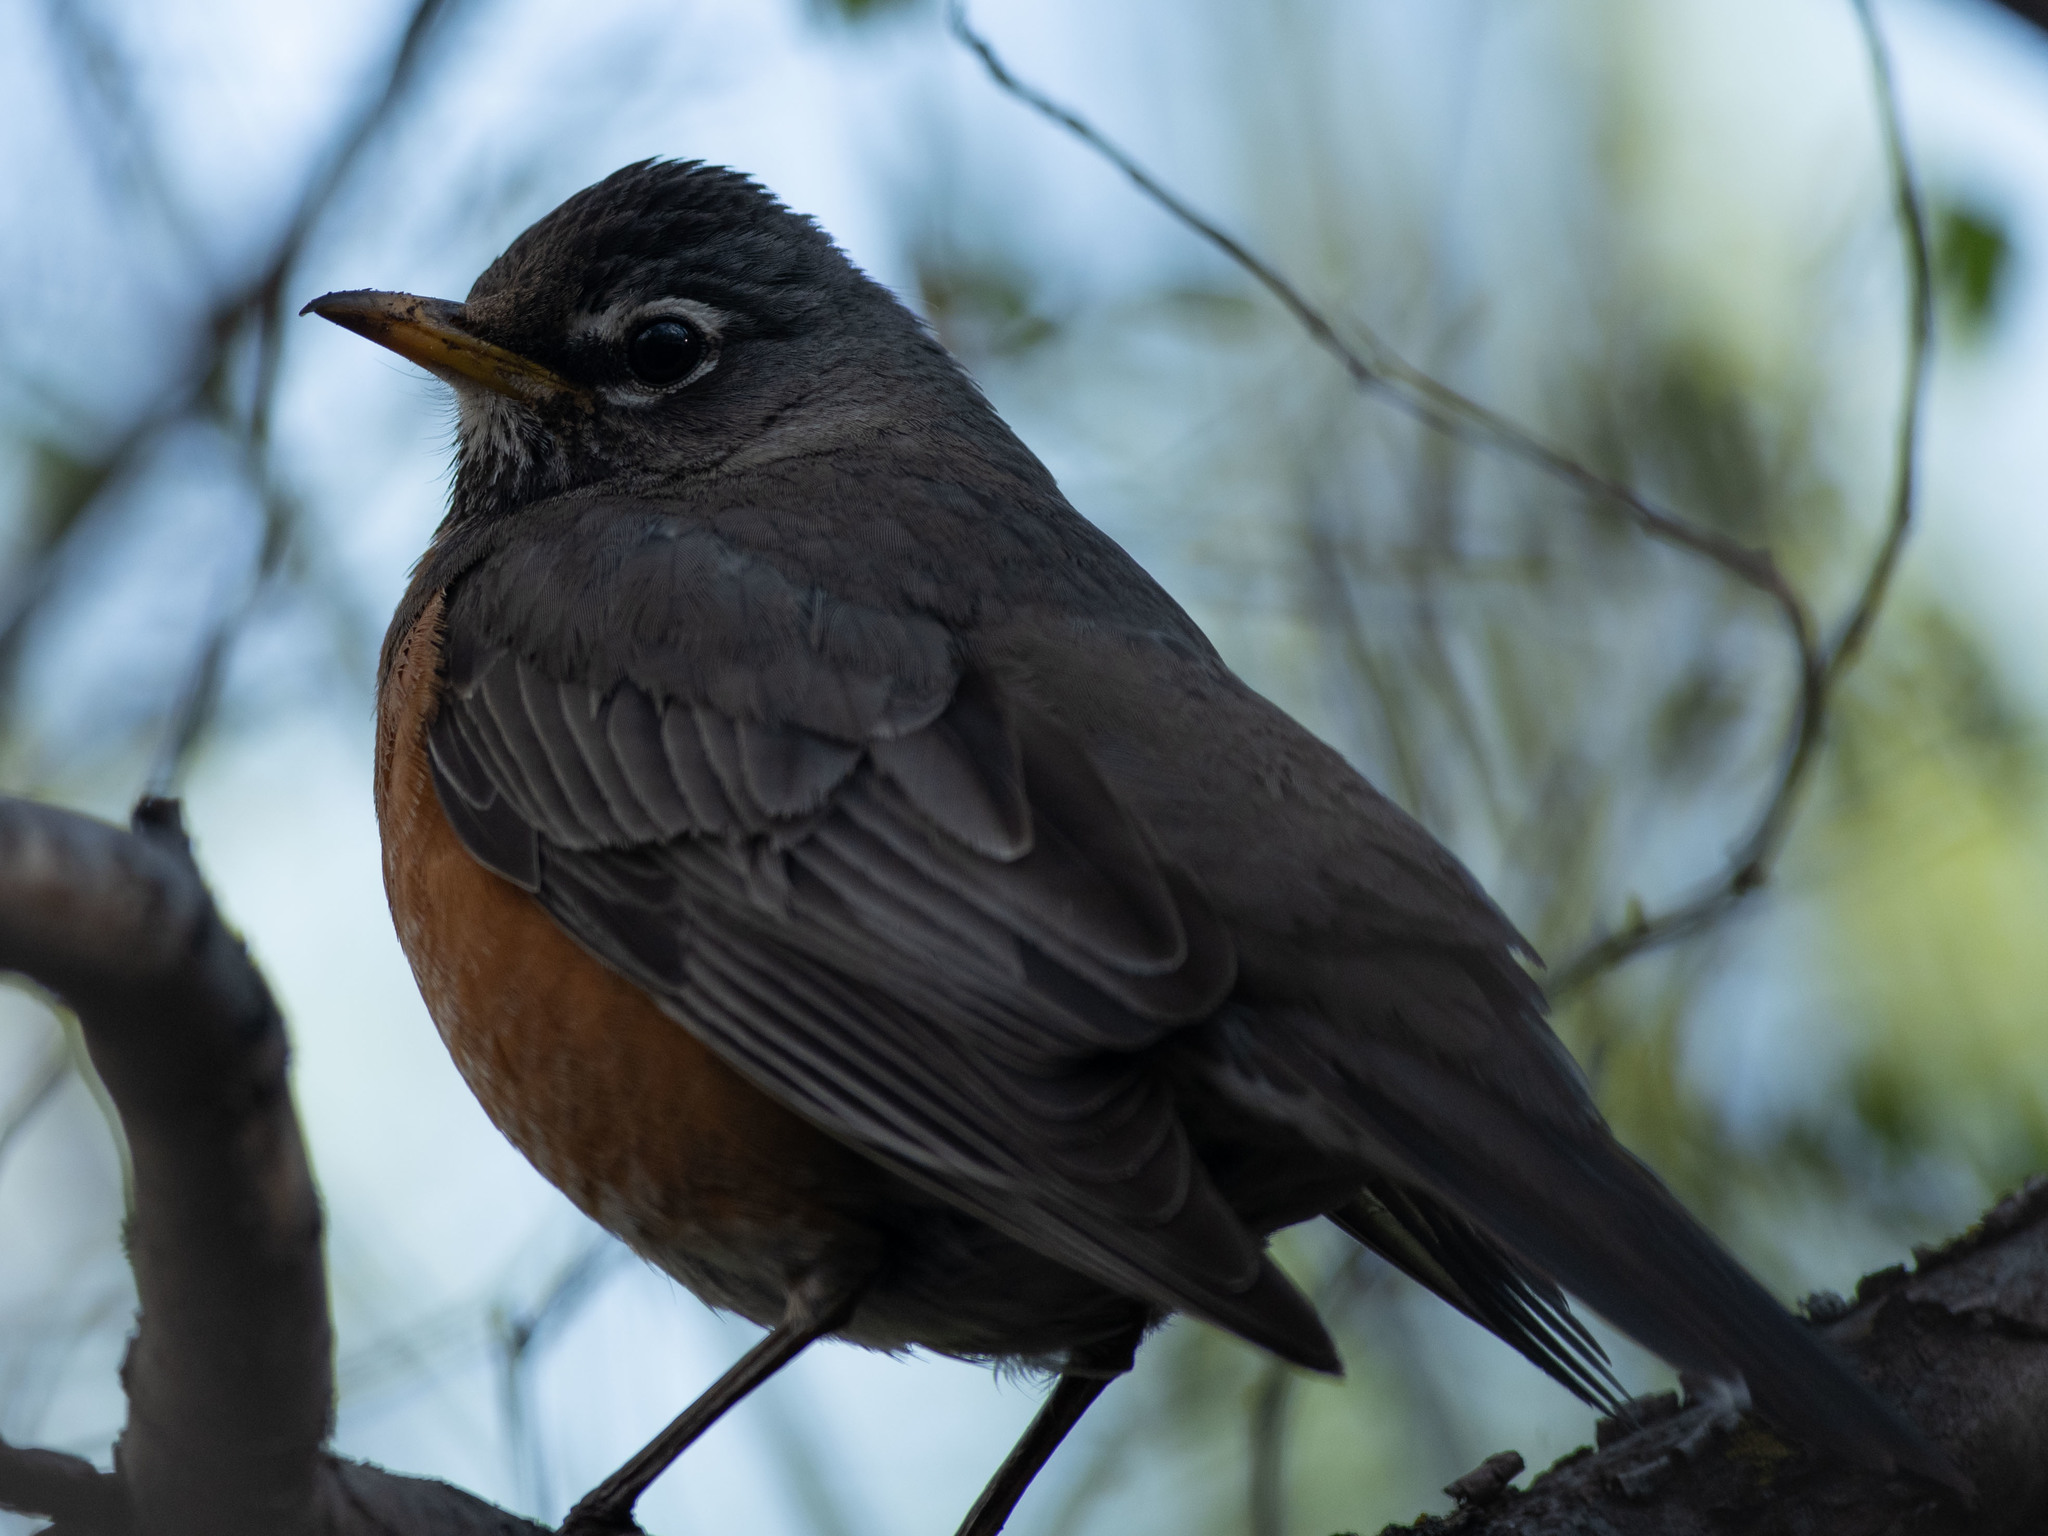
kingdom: Animalia
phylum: Chordata
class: Aves
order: Passeriformes
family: Turdidae
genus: Turdus
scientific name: Turdus migratorius
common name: American robin
